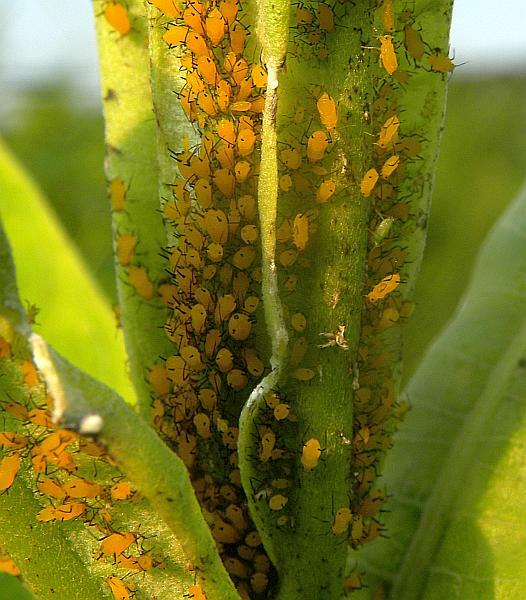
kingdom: Animalia
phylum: Arthropoda
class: Insecta
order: Hemiptera
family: Aphididae
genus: Aphis
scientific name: Aphis nerii
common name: Oleander aphid
